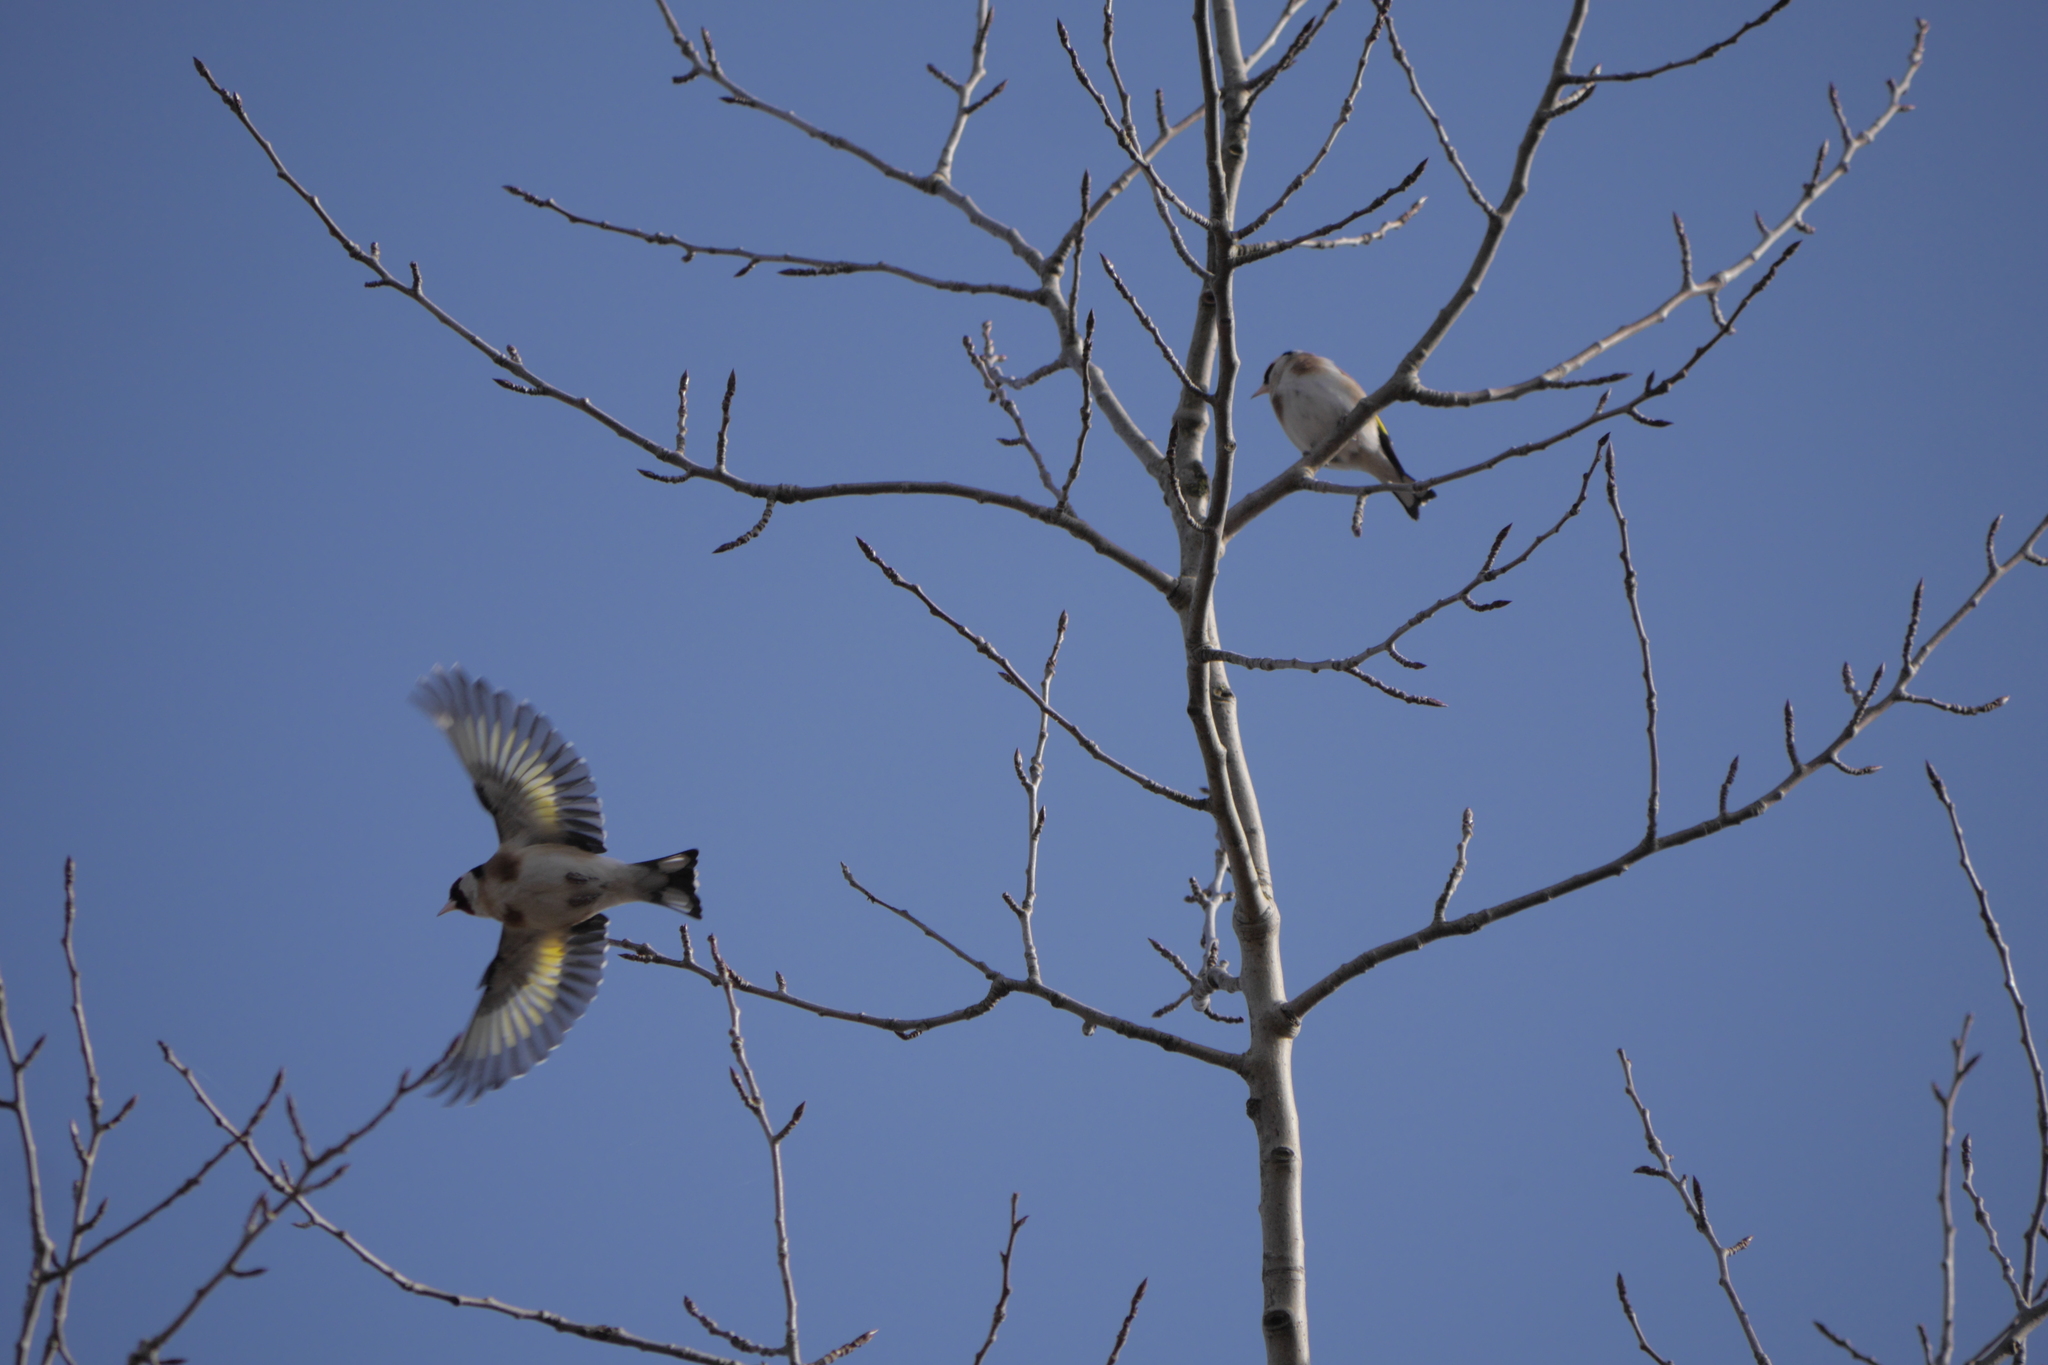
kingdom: Animalia
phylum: Chordata
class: Aves
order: Passeriformes
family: Fringillidae
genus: Carduelis
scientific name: Carduelis carduelis
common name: European goldfinch
